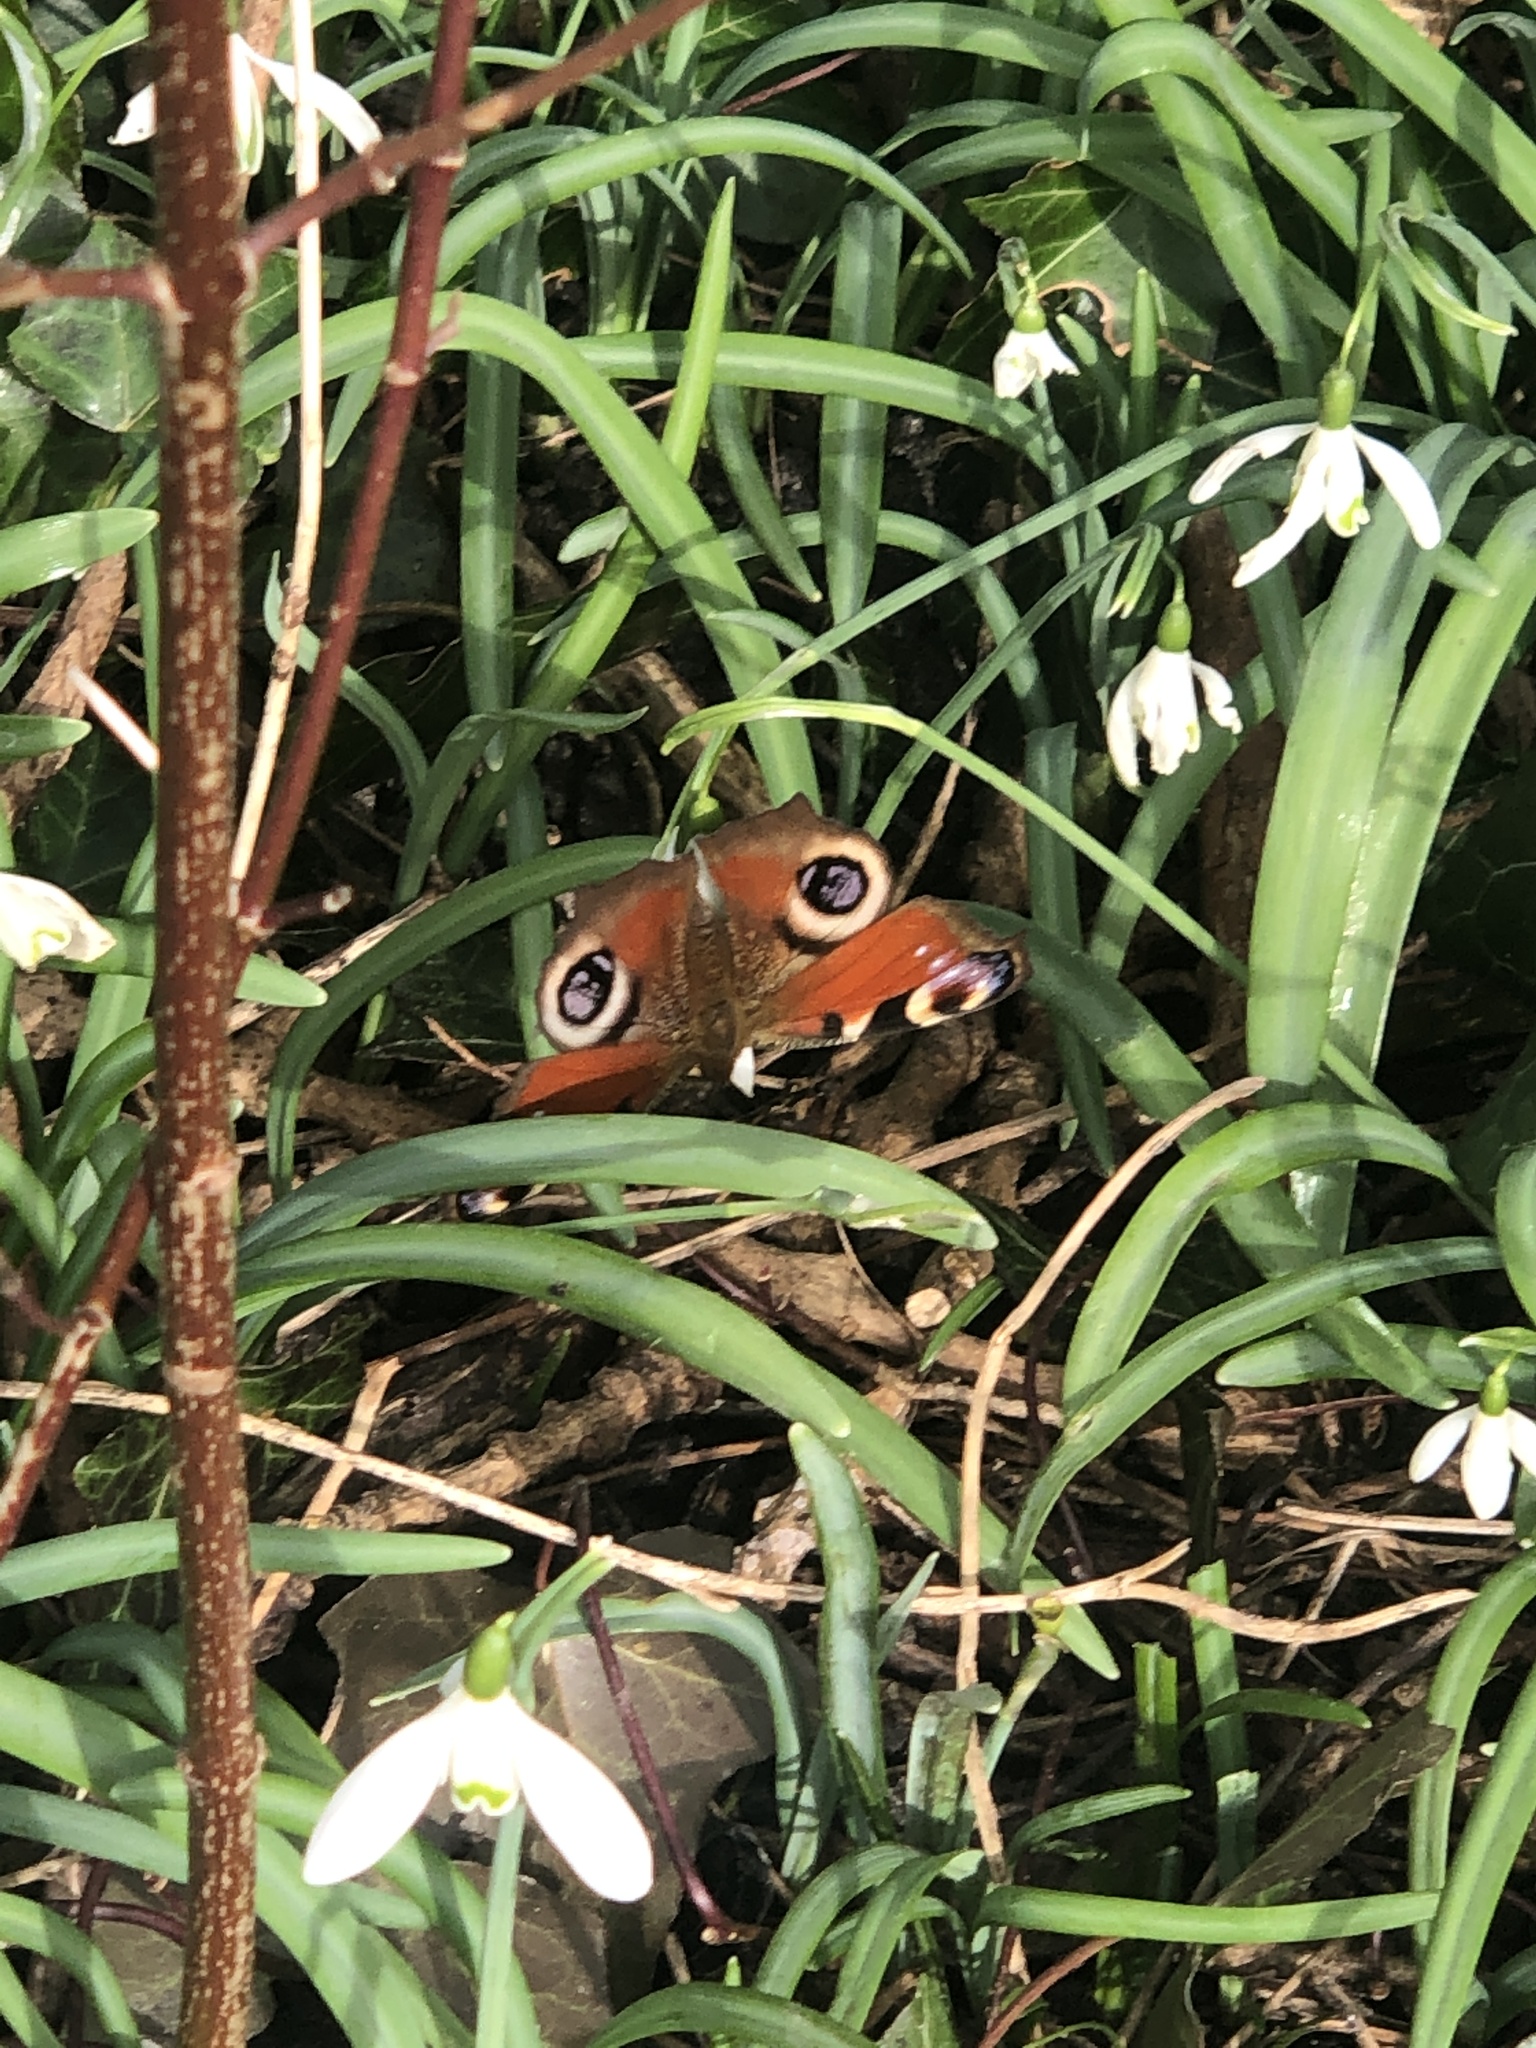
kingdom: Animalia
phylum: Arthropoda
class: Insecta
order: Lepidoptera
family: Nymphalidae
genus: Aglais
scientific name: Aglais io
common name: Peacock
